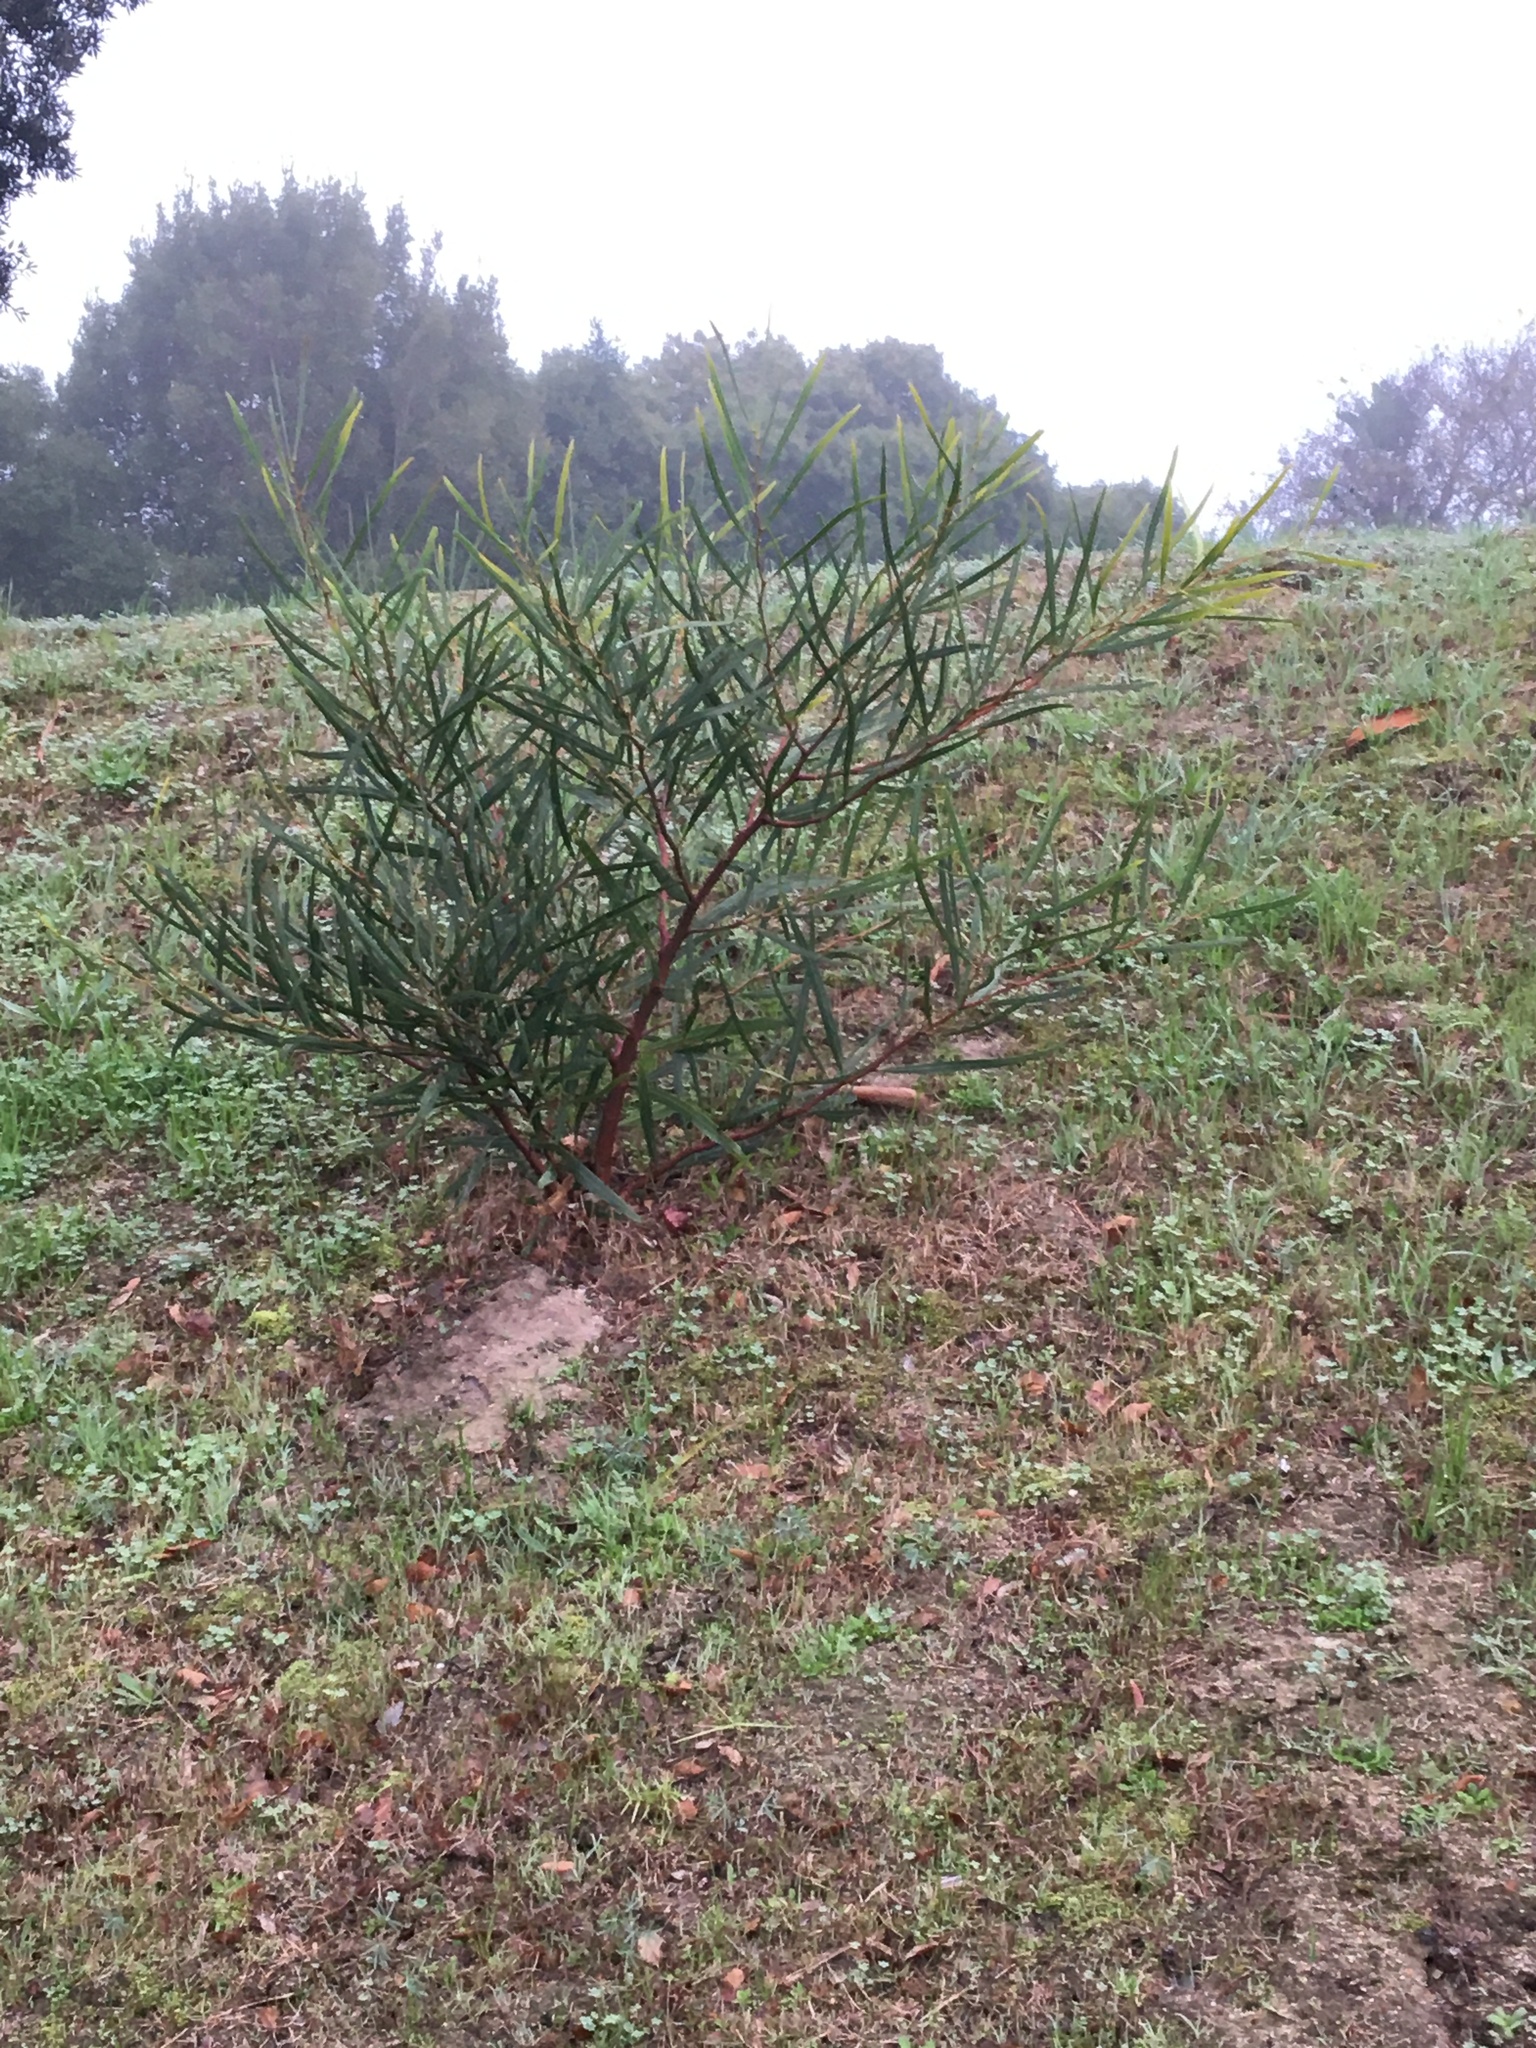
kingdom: Plantae
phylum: Tracheophyta
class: Magnoliopsida
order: Fabales
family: Fabaceae
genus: Acacia
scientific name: Acacia saligna
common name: Orange wattle
